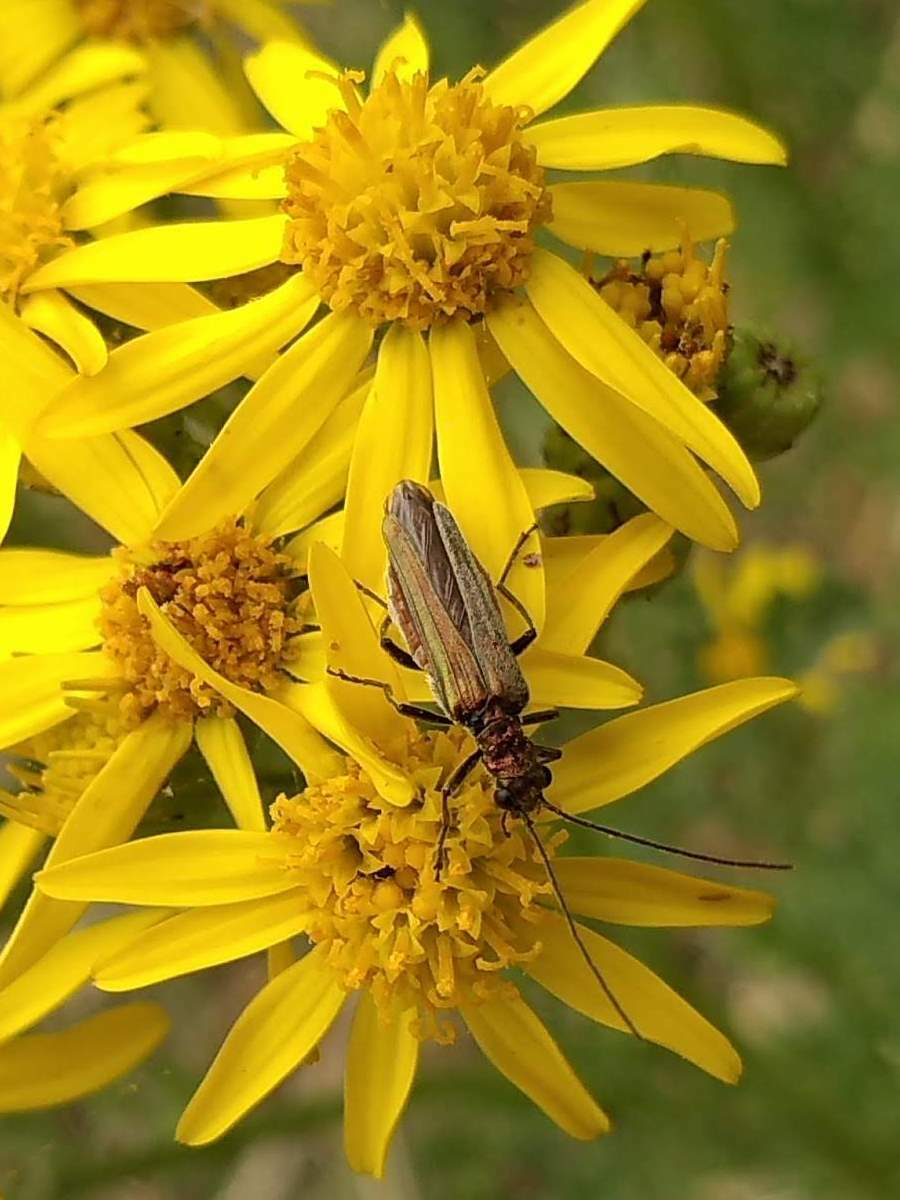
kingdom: Animalia
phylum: Arthropoda
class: Insecta
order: Coleoptera
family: Oedemeridae
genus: Oedemera
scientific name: Oedemera nobilis
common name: Swollen-thighed beetle
